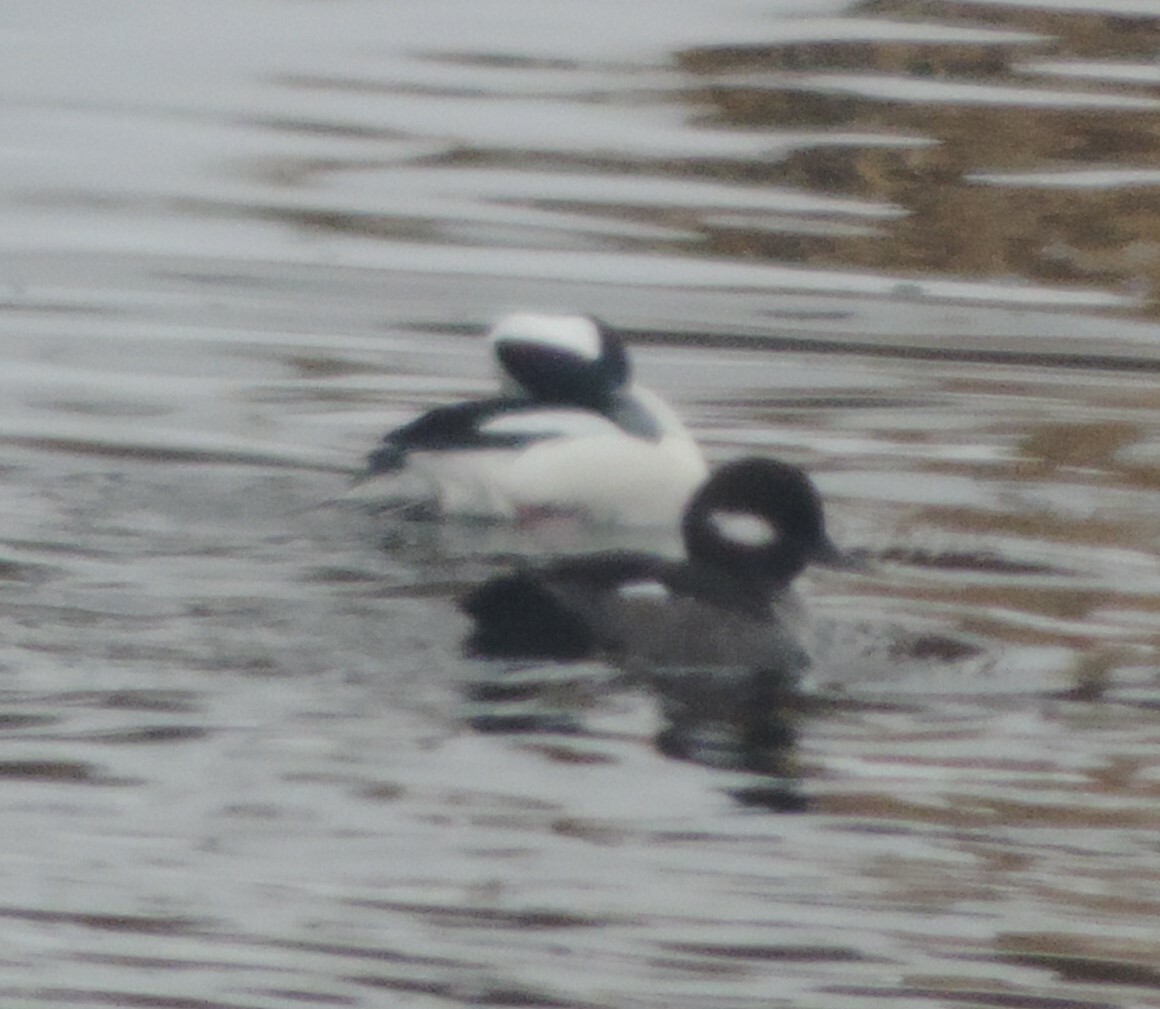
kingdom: Animalia
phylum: Chordata
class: Aves
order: Anseriformes
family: Anatidae
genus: Bucephala
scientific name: Bucephala albeola
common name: Bufflehead
